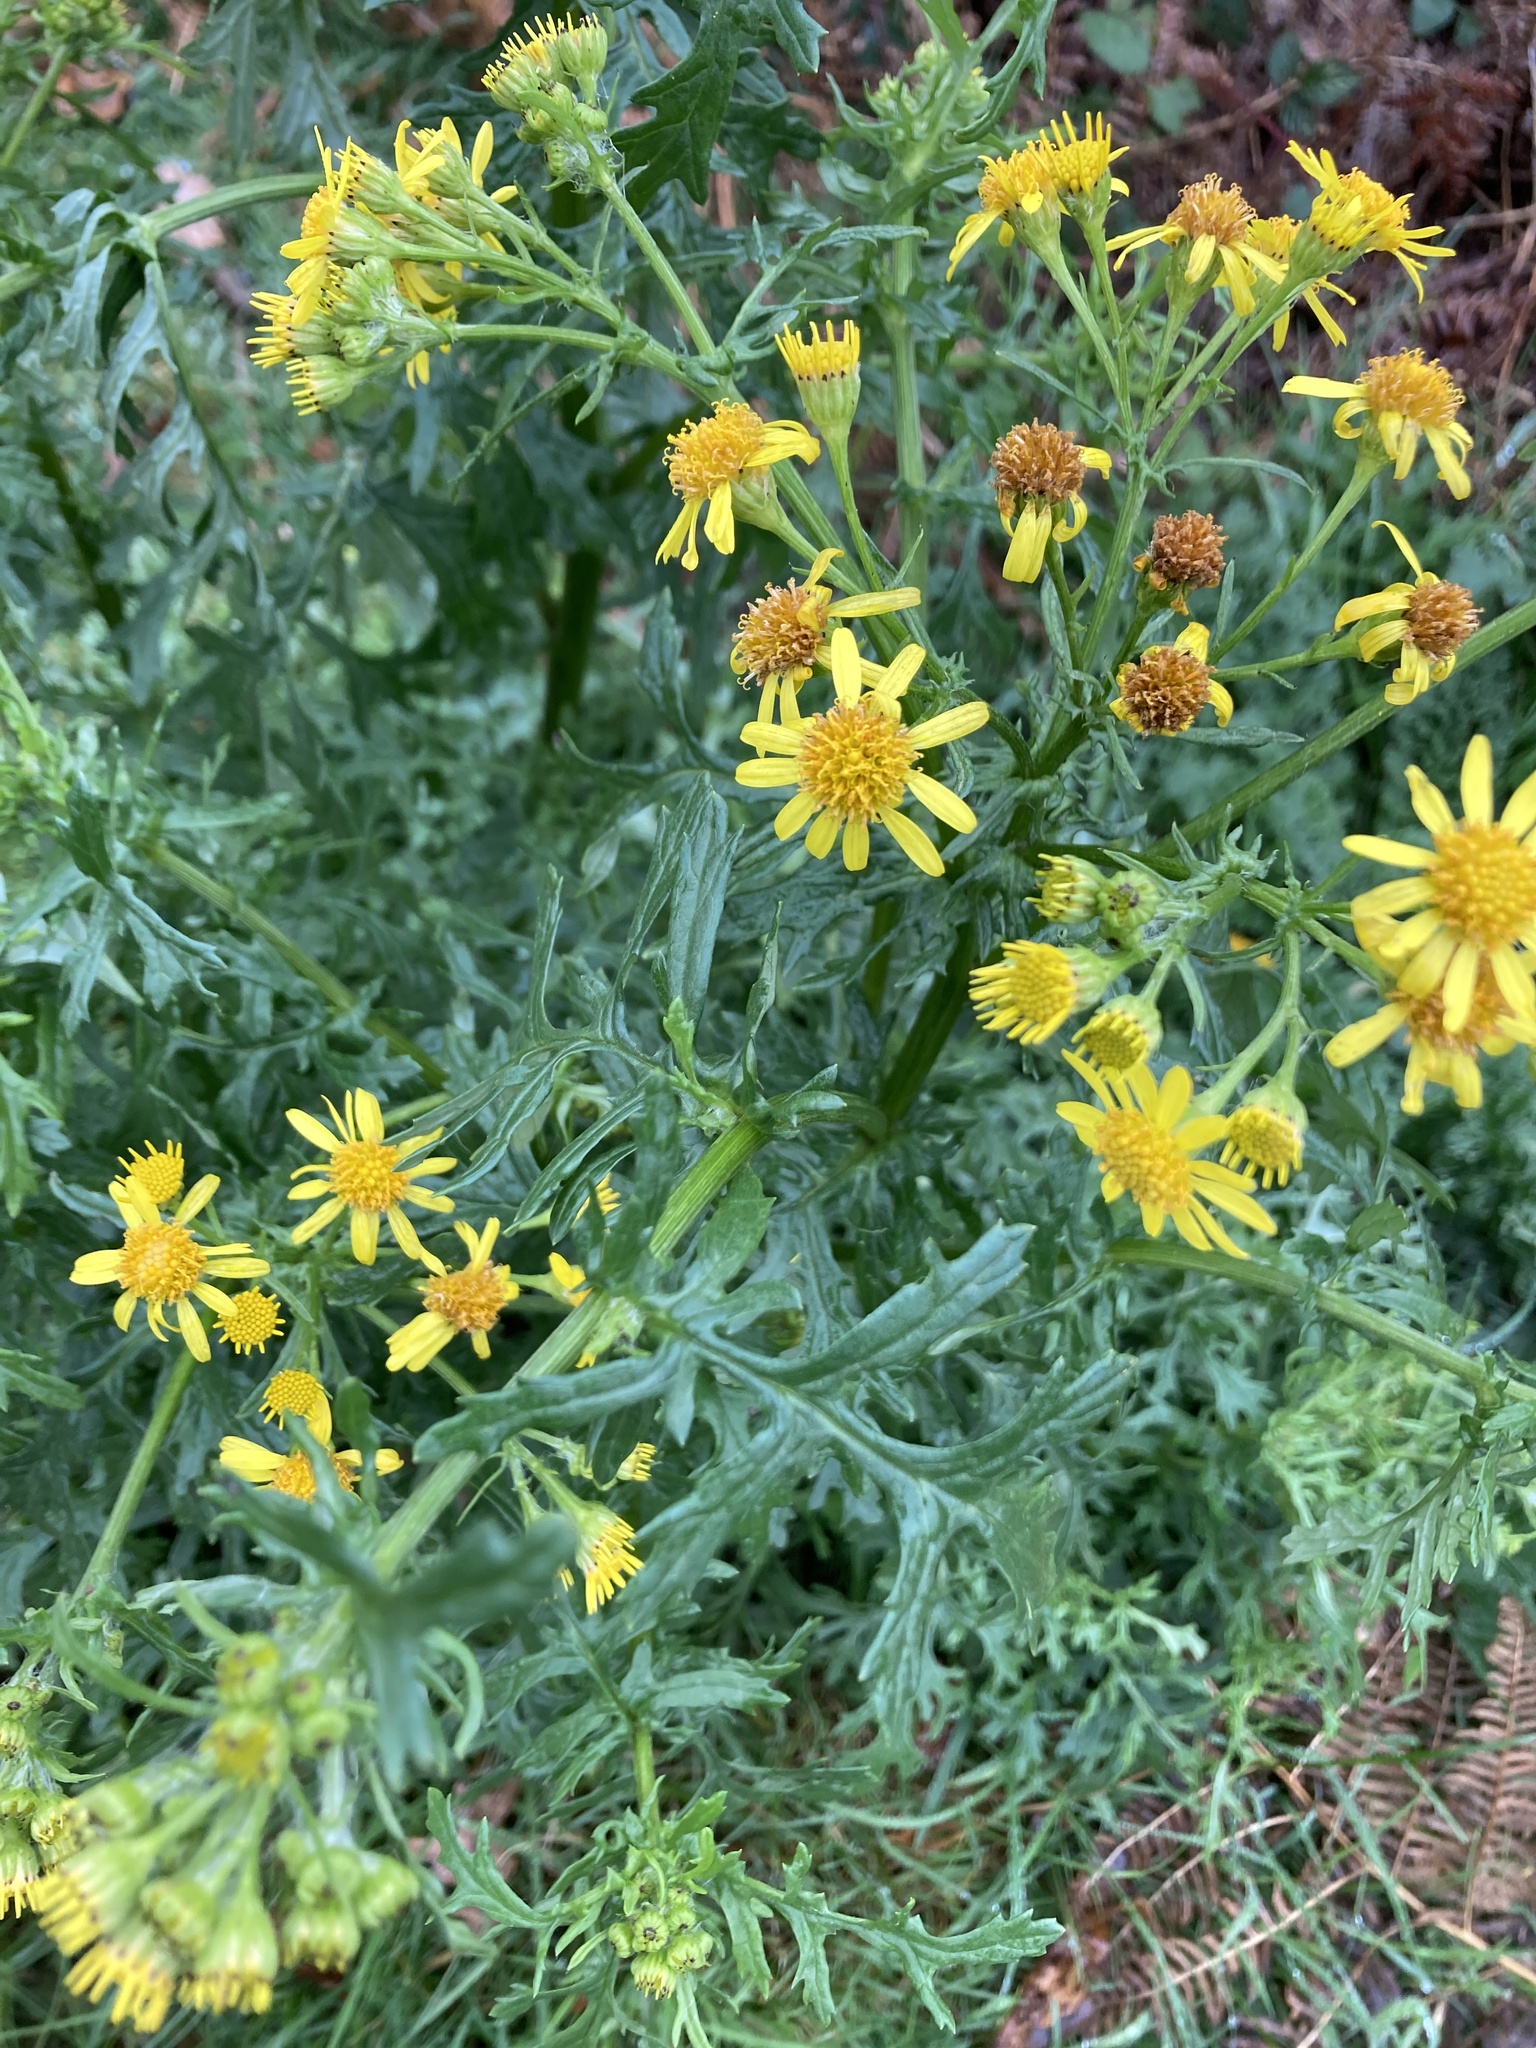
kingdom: Plantae
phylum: Tracheophyta
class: Magnoliopsida
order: Asterales
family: Asteraceae
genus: Jacobaea
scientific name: Jacobaea vulgaris
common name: Stinking willie
